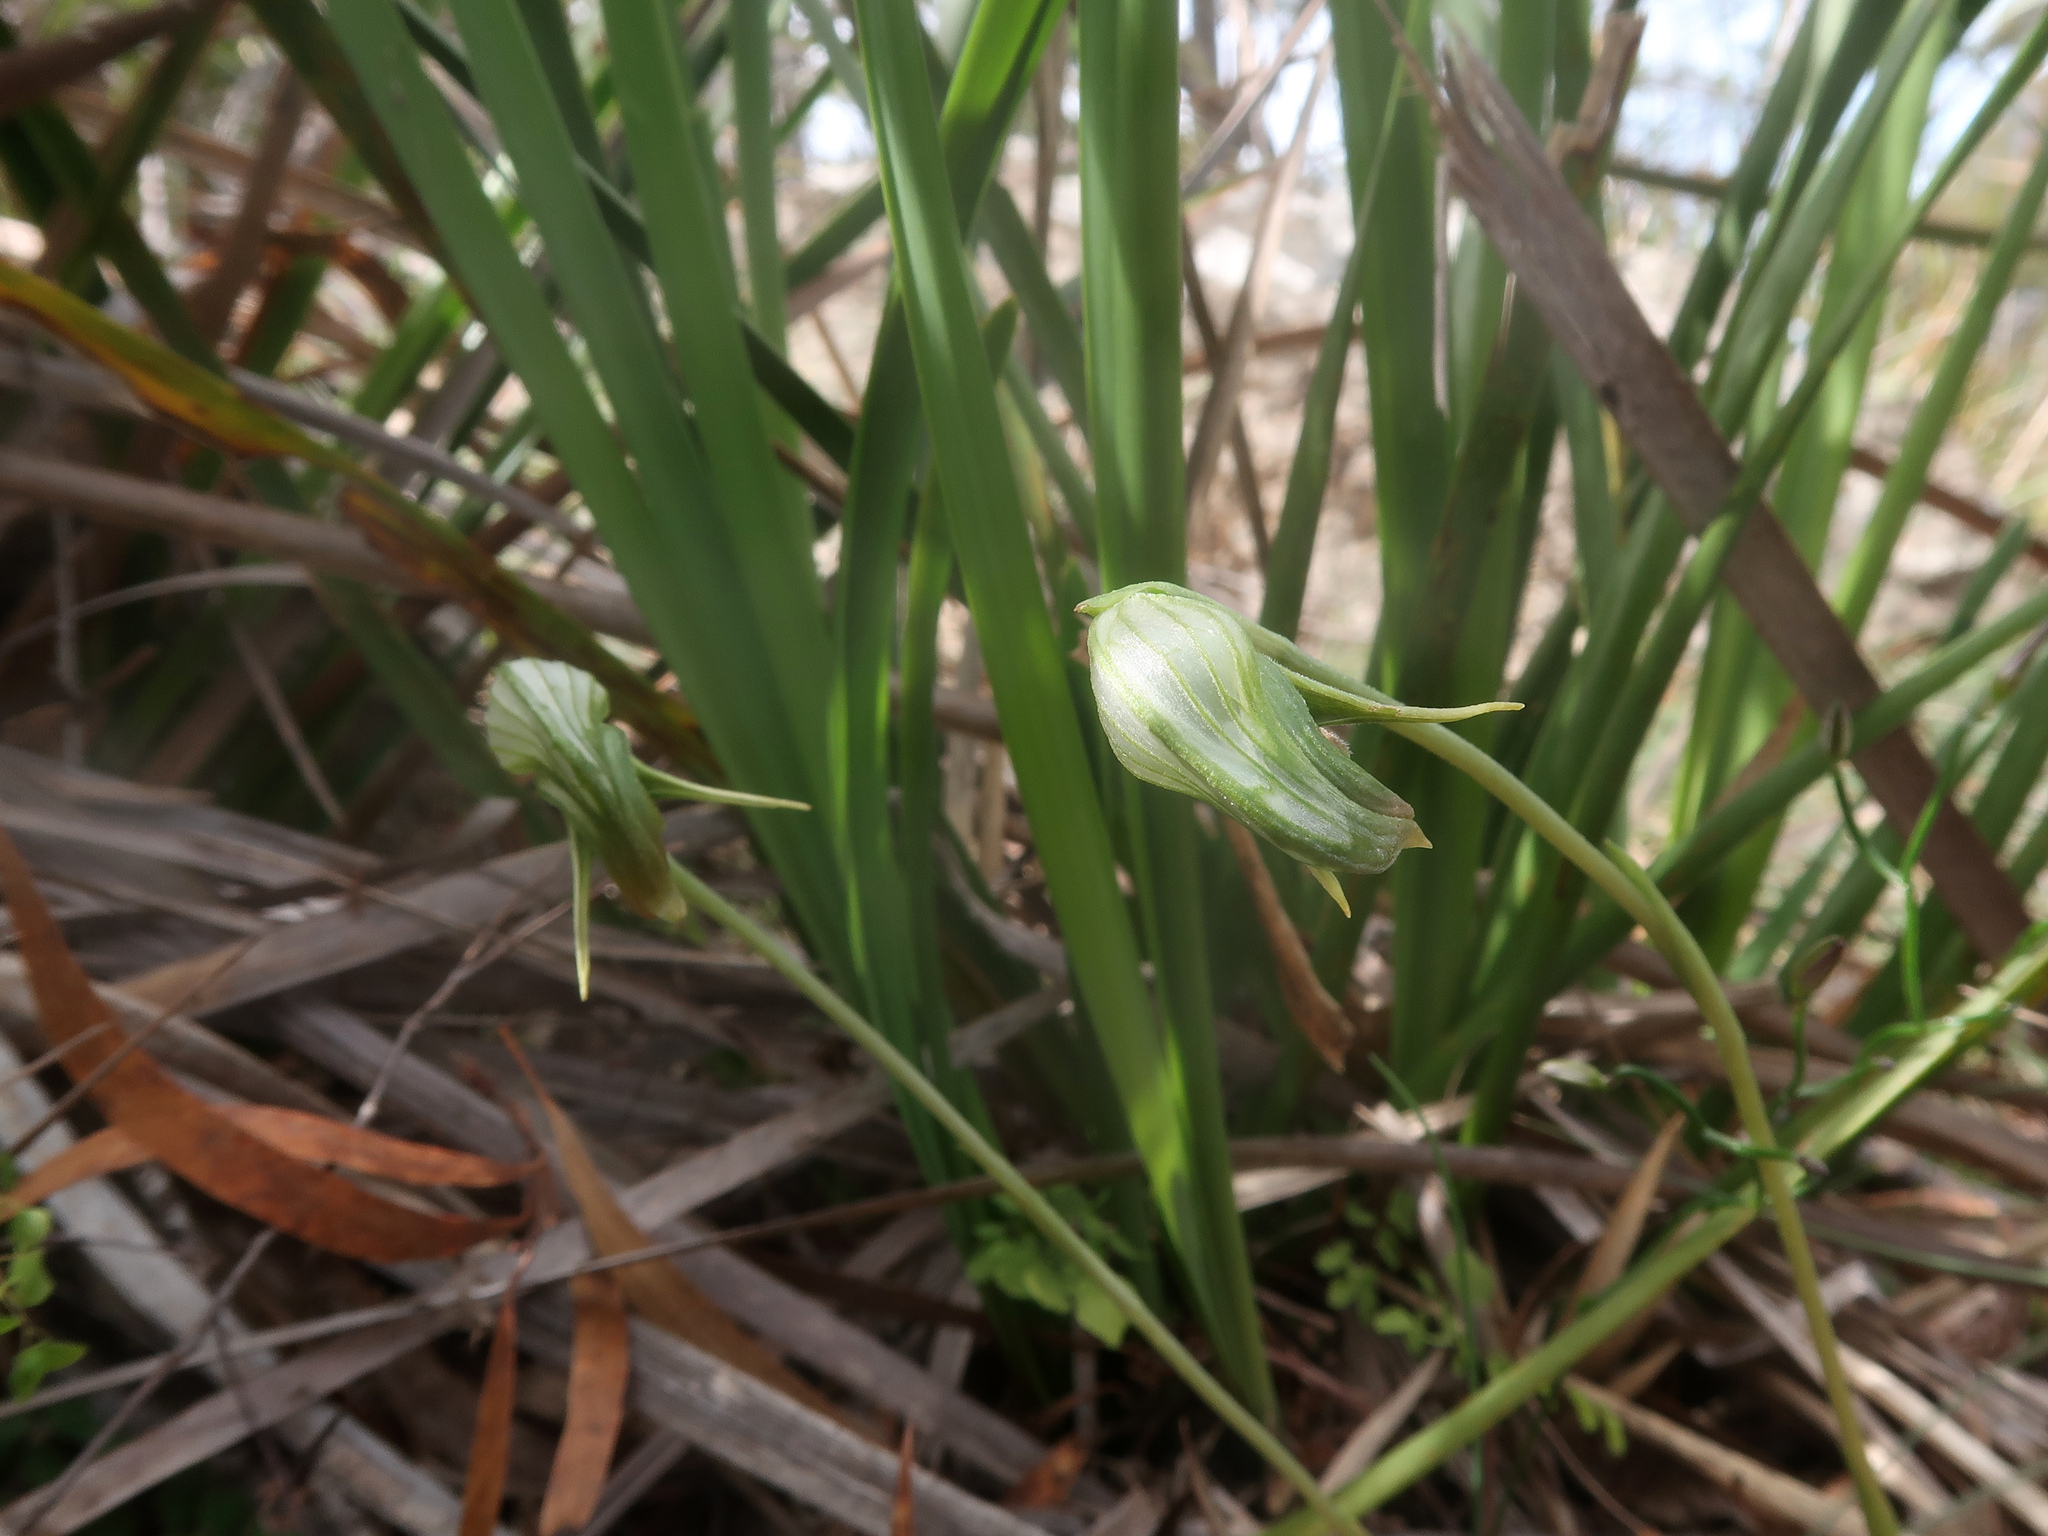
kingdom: Plantae
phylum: Tracheophyta
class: Liliopsida
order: Asparagales
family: Orchidaceae
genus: Pterostylis
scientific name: Pterostylis nutans
